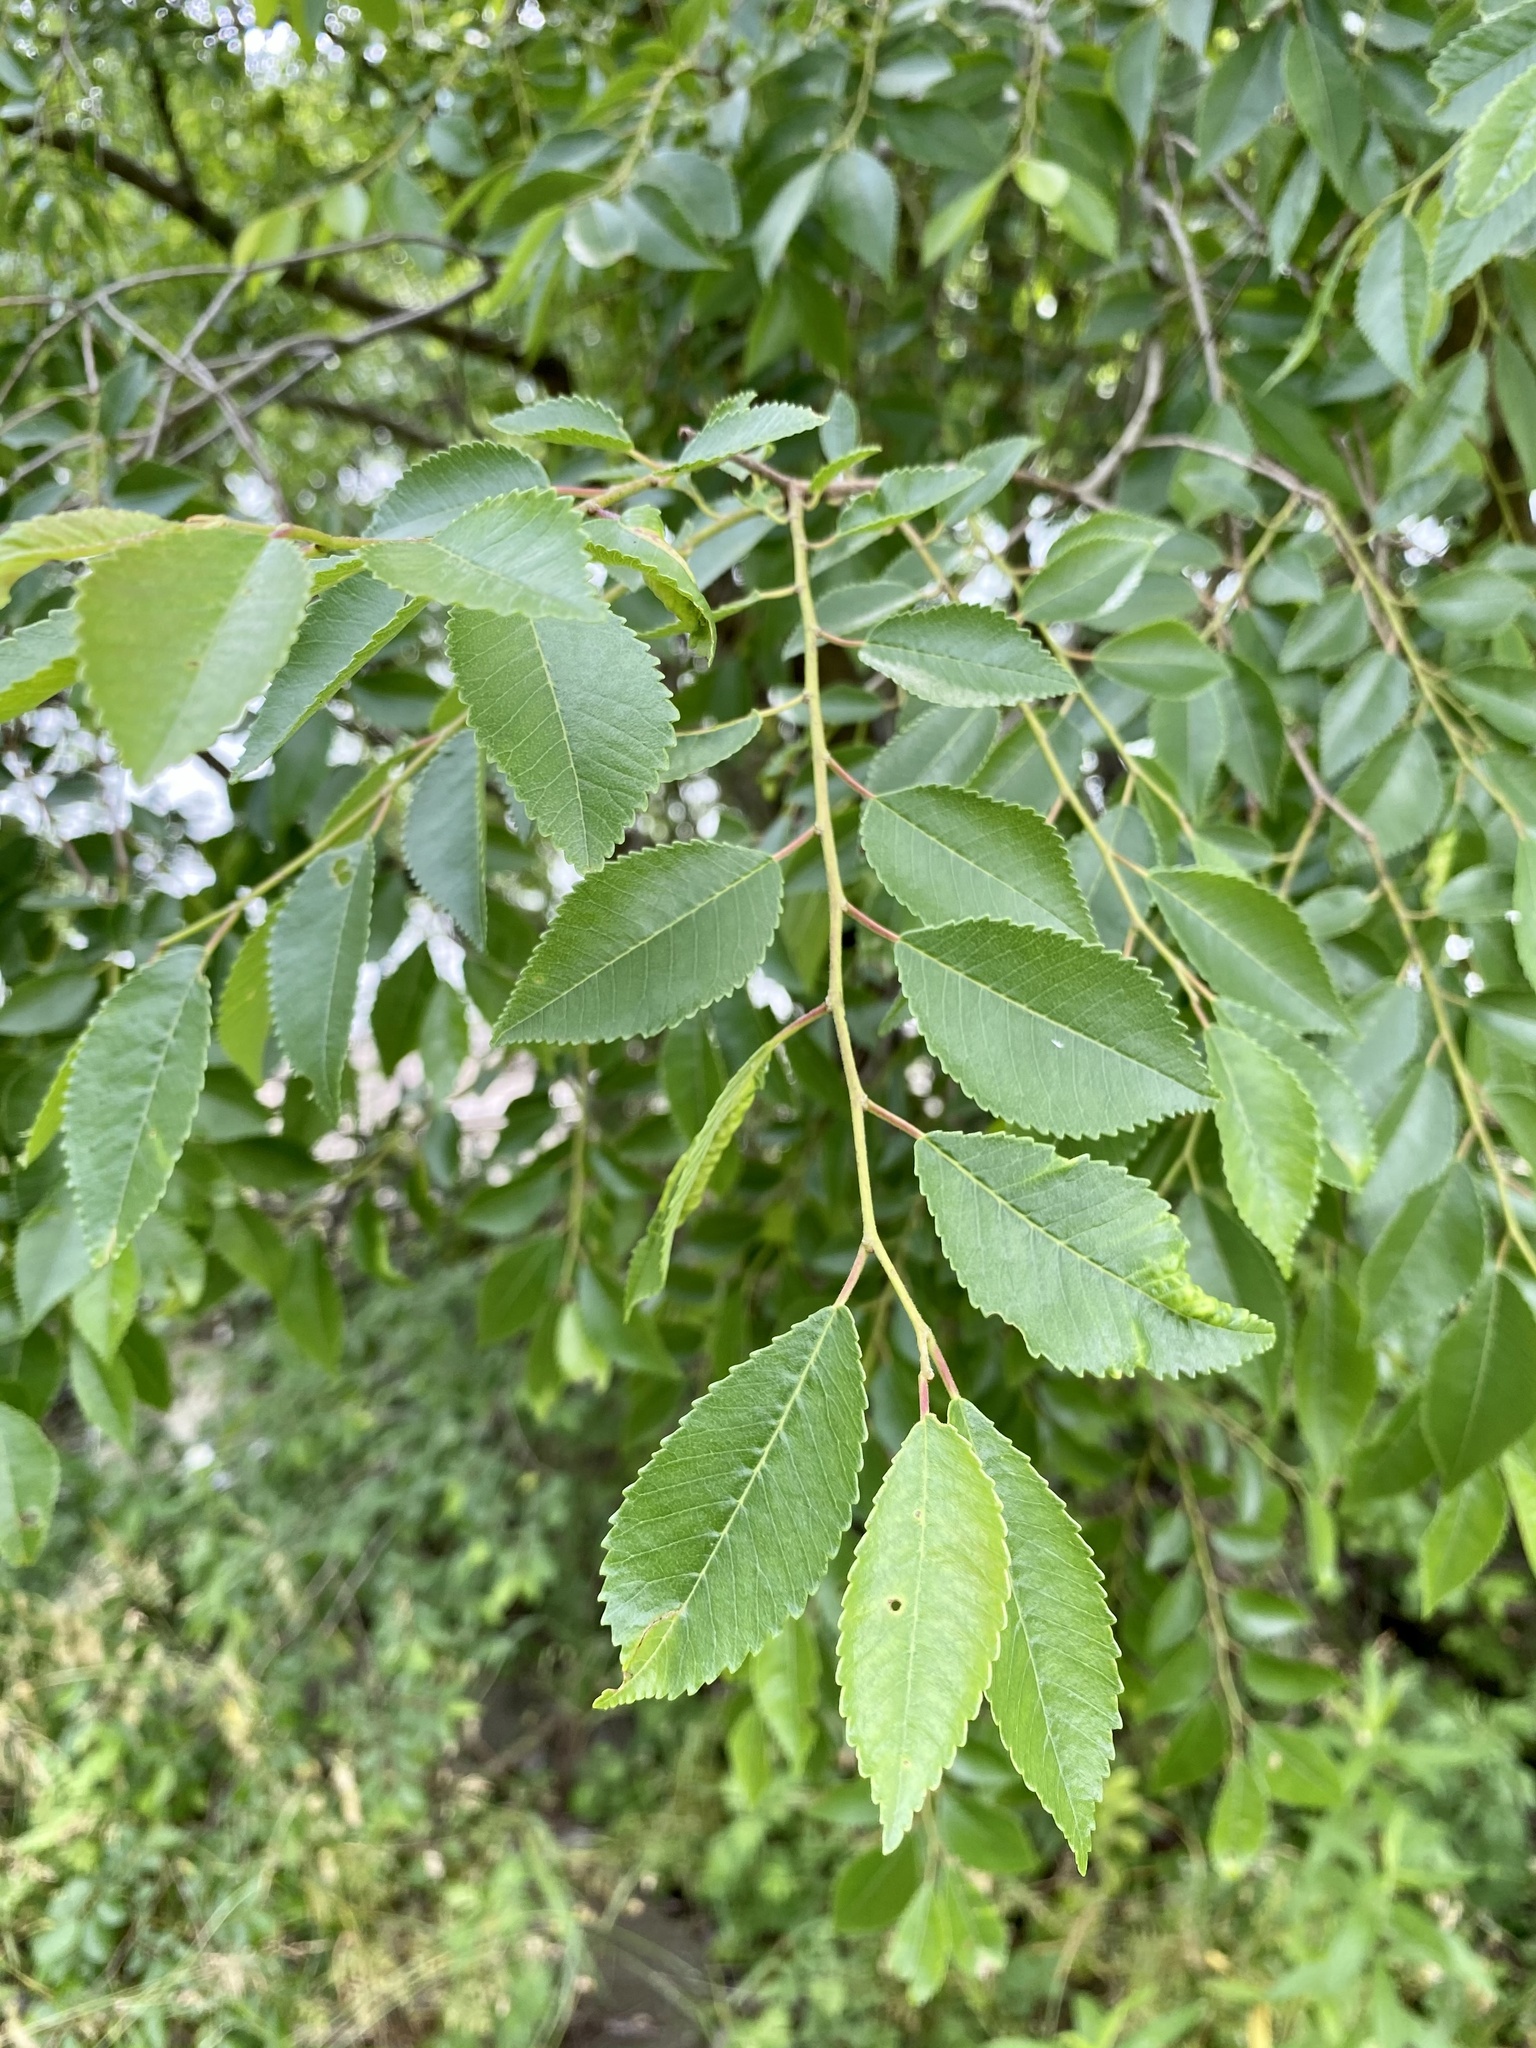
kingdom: Plantae
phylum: Tracheophyta
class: Magnoliopsida
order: Rosales
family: Ulmaceae
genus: Ulmus
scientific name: Ulmus parvifolia
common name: Chinese elm
